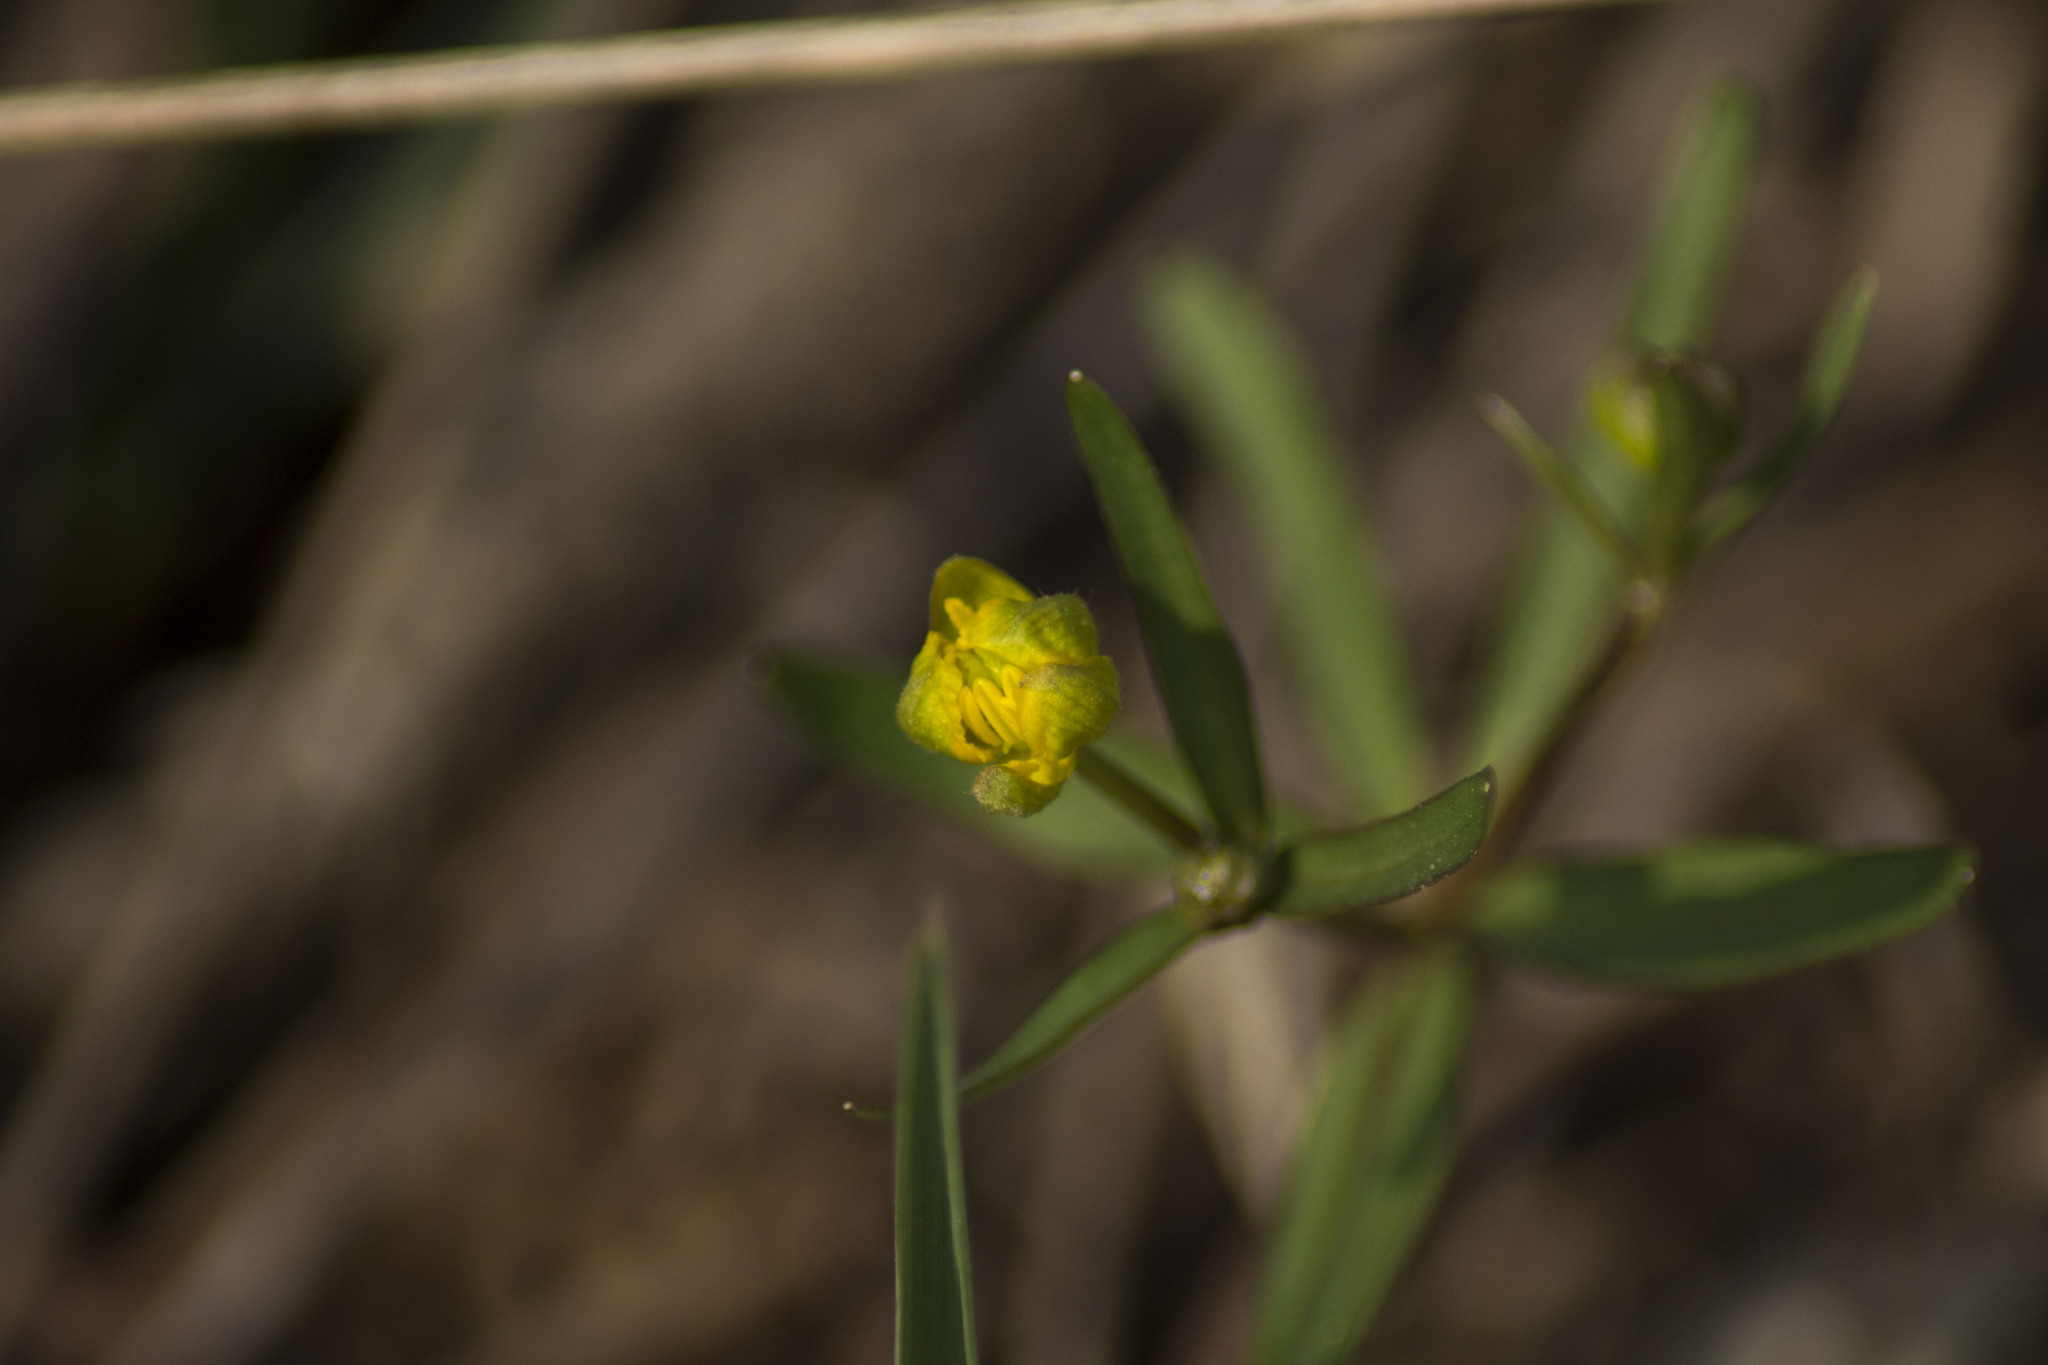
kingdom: Plantae
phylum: Tracheophyta
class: Magnoliopsida
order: Ranunculales
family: Ranunculaceae
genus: Ranunculus
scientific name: Ranunculus monophyllus
